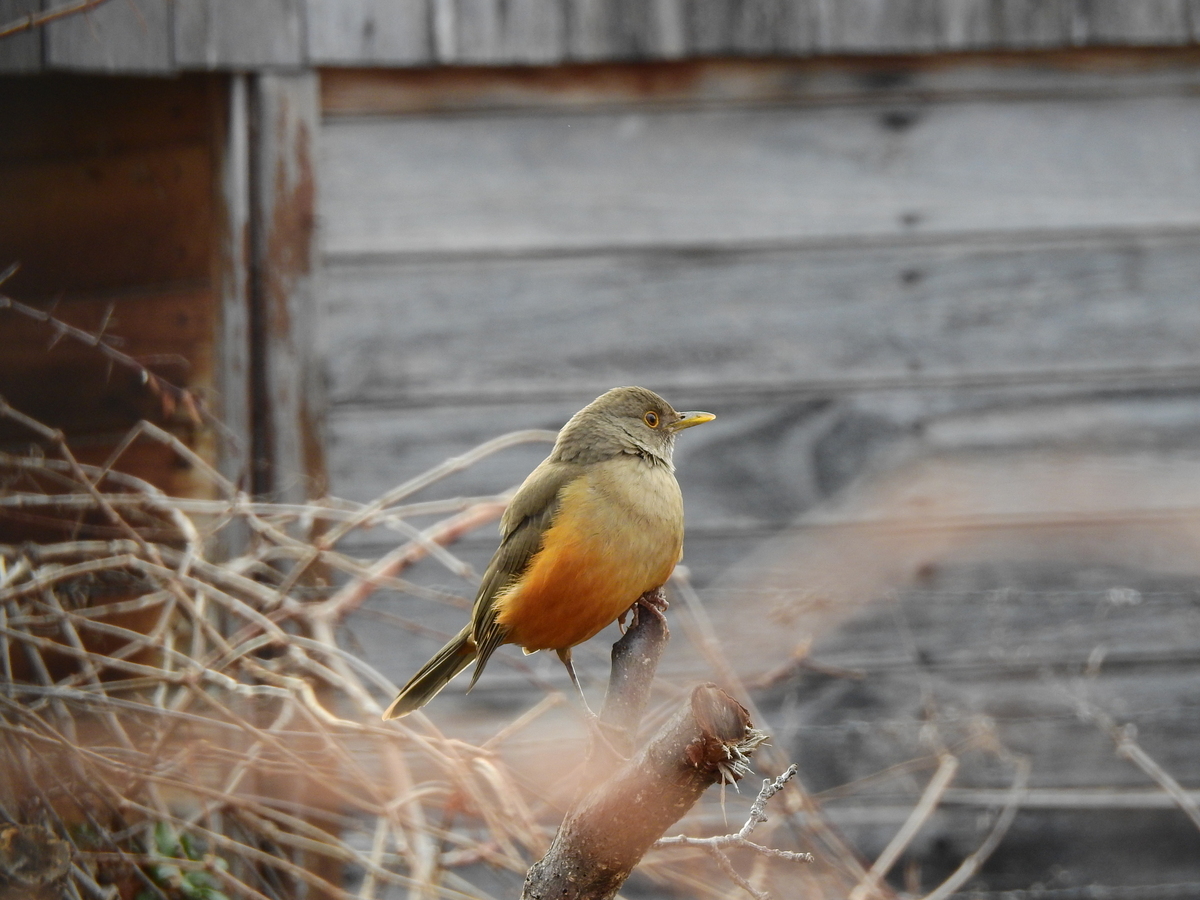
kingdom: Animalia
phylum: Chordata
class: Aves
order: Passeriformes
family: Turdidae
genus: Turdus
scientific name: Turdus rufiventris
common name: Rufous-bellied thrush
